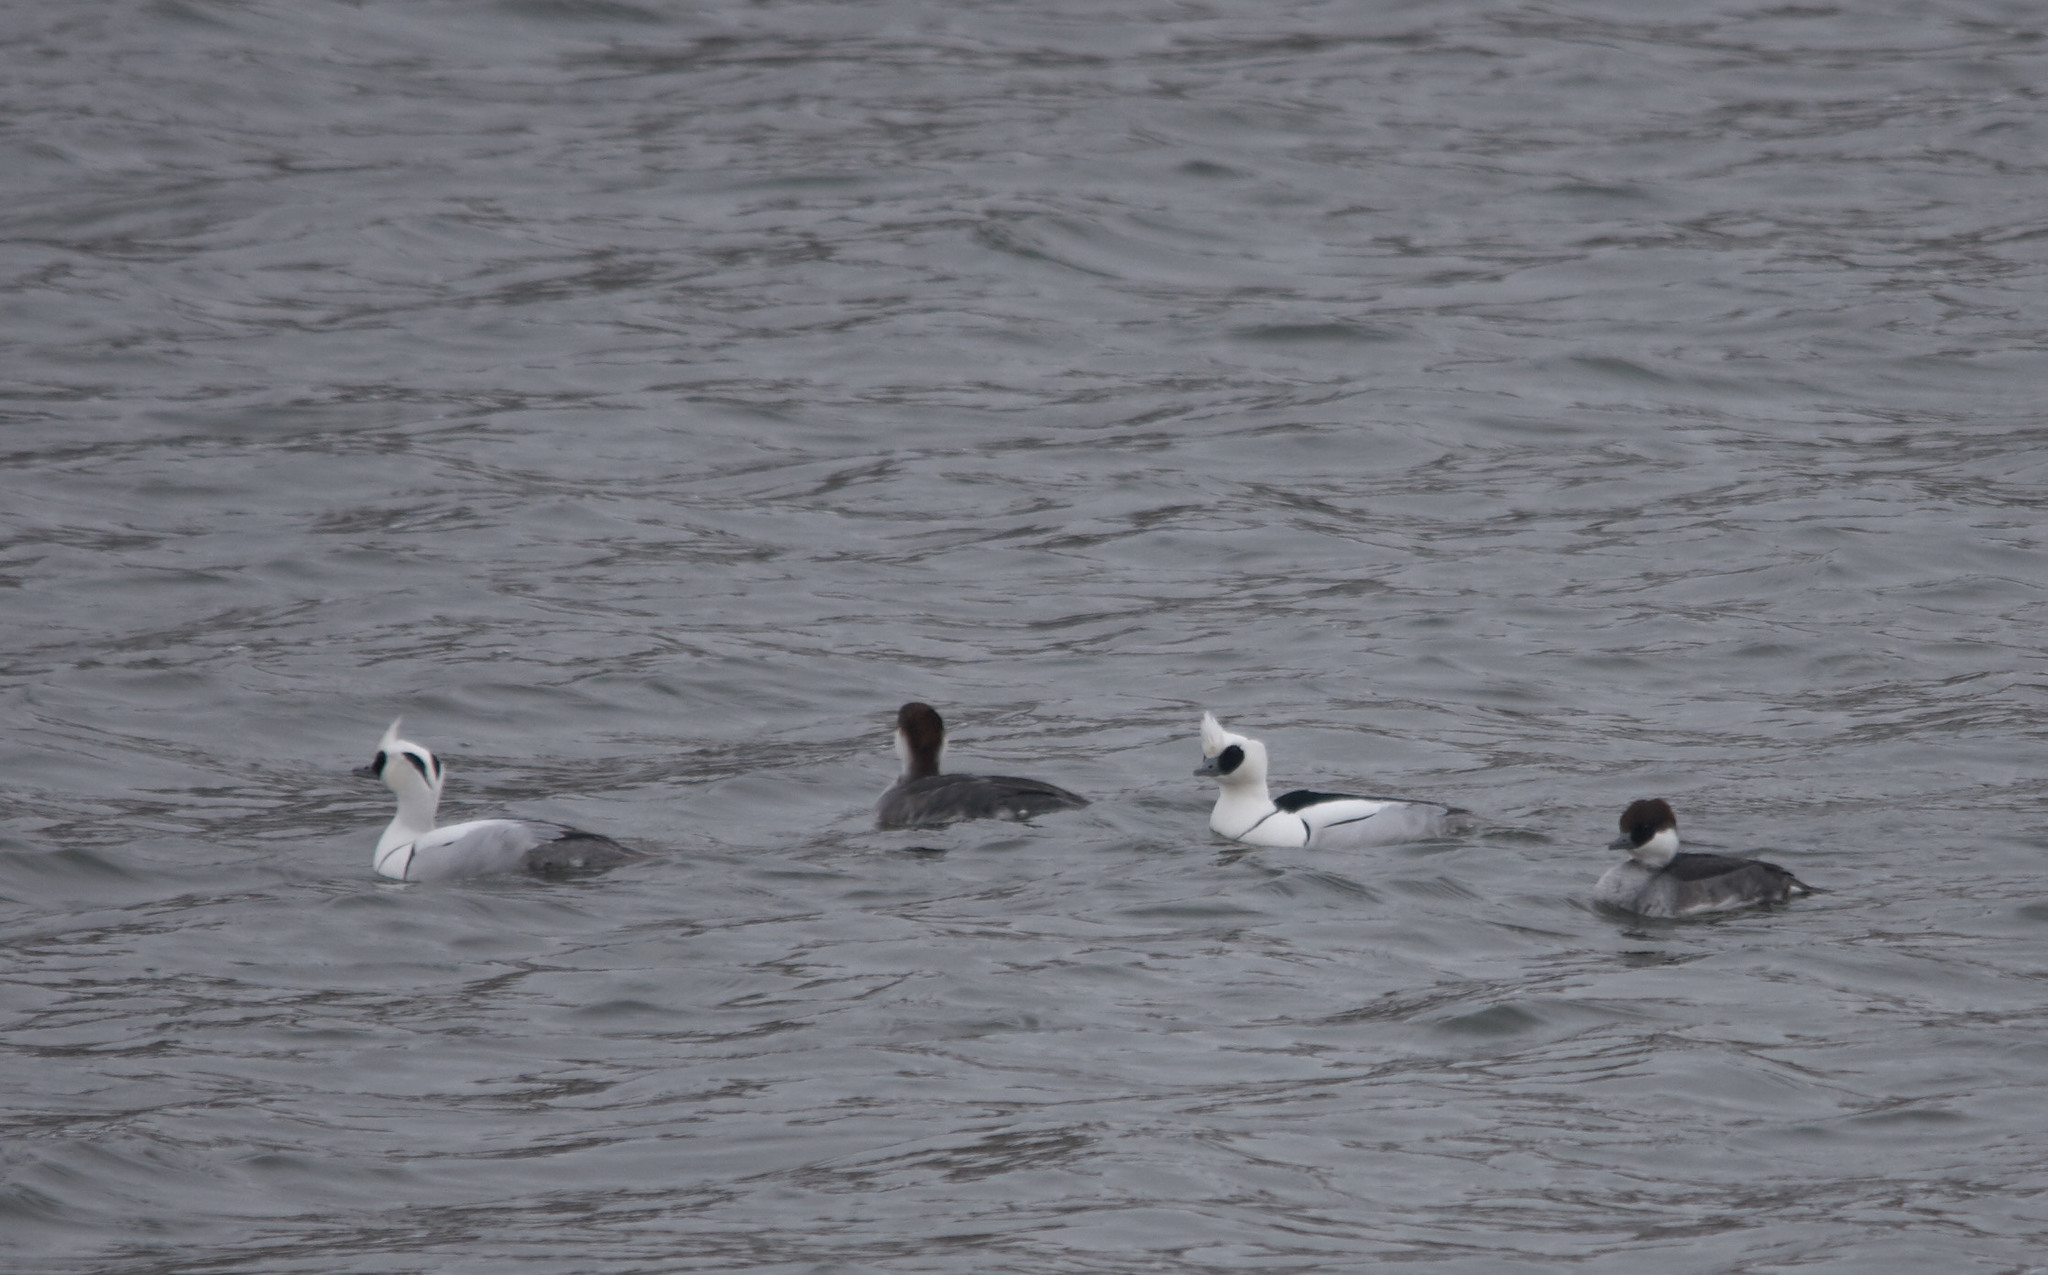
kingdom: Animalia
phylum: Chordata
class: Aves
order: Anseriformes
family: Anatidae
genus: Mergellus
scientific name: Mergellus albellus
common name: Smew
